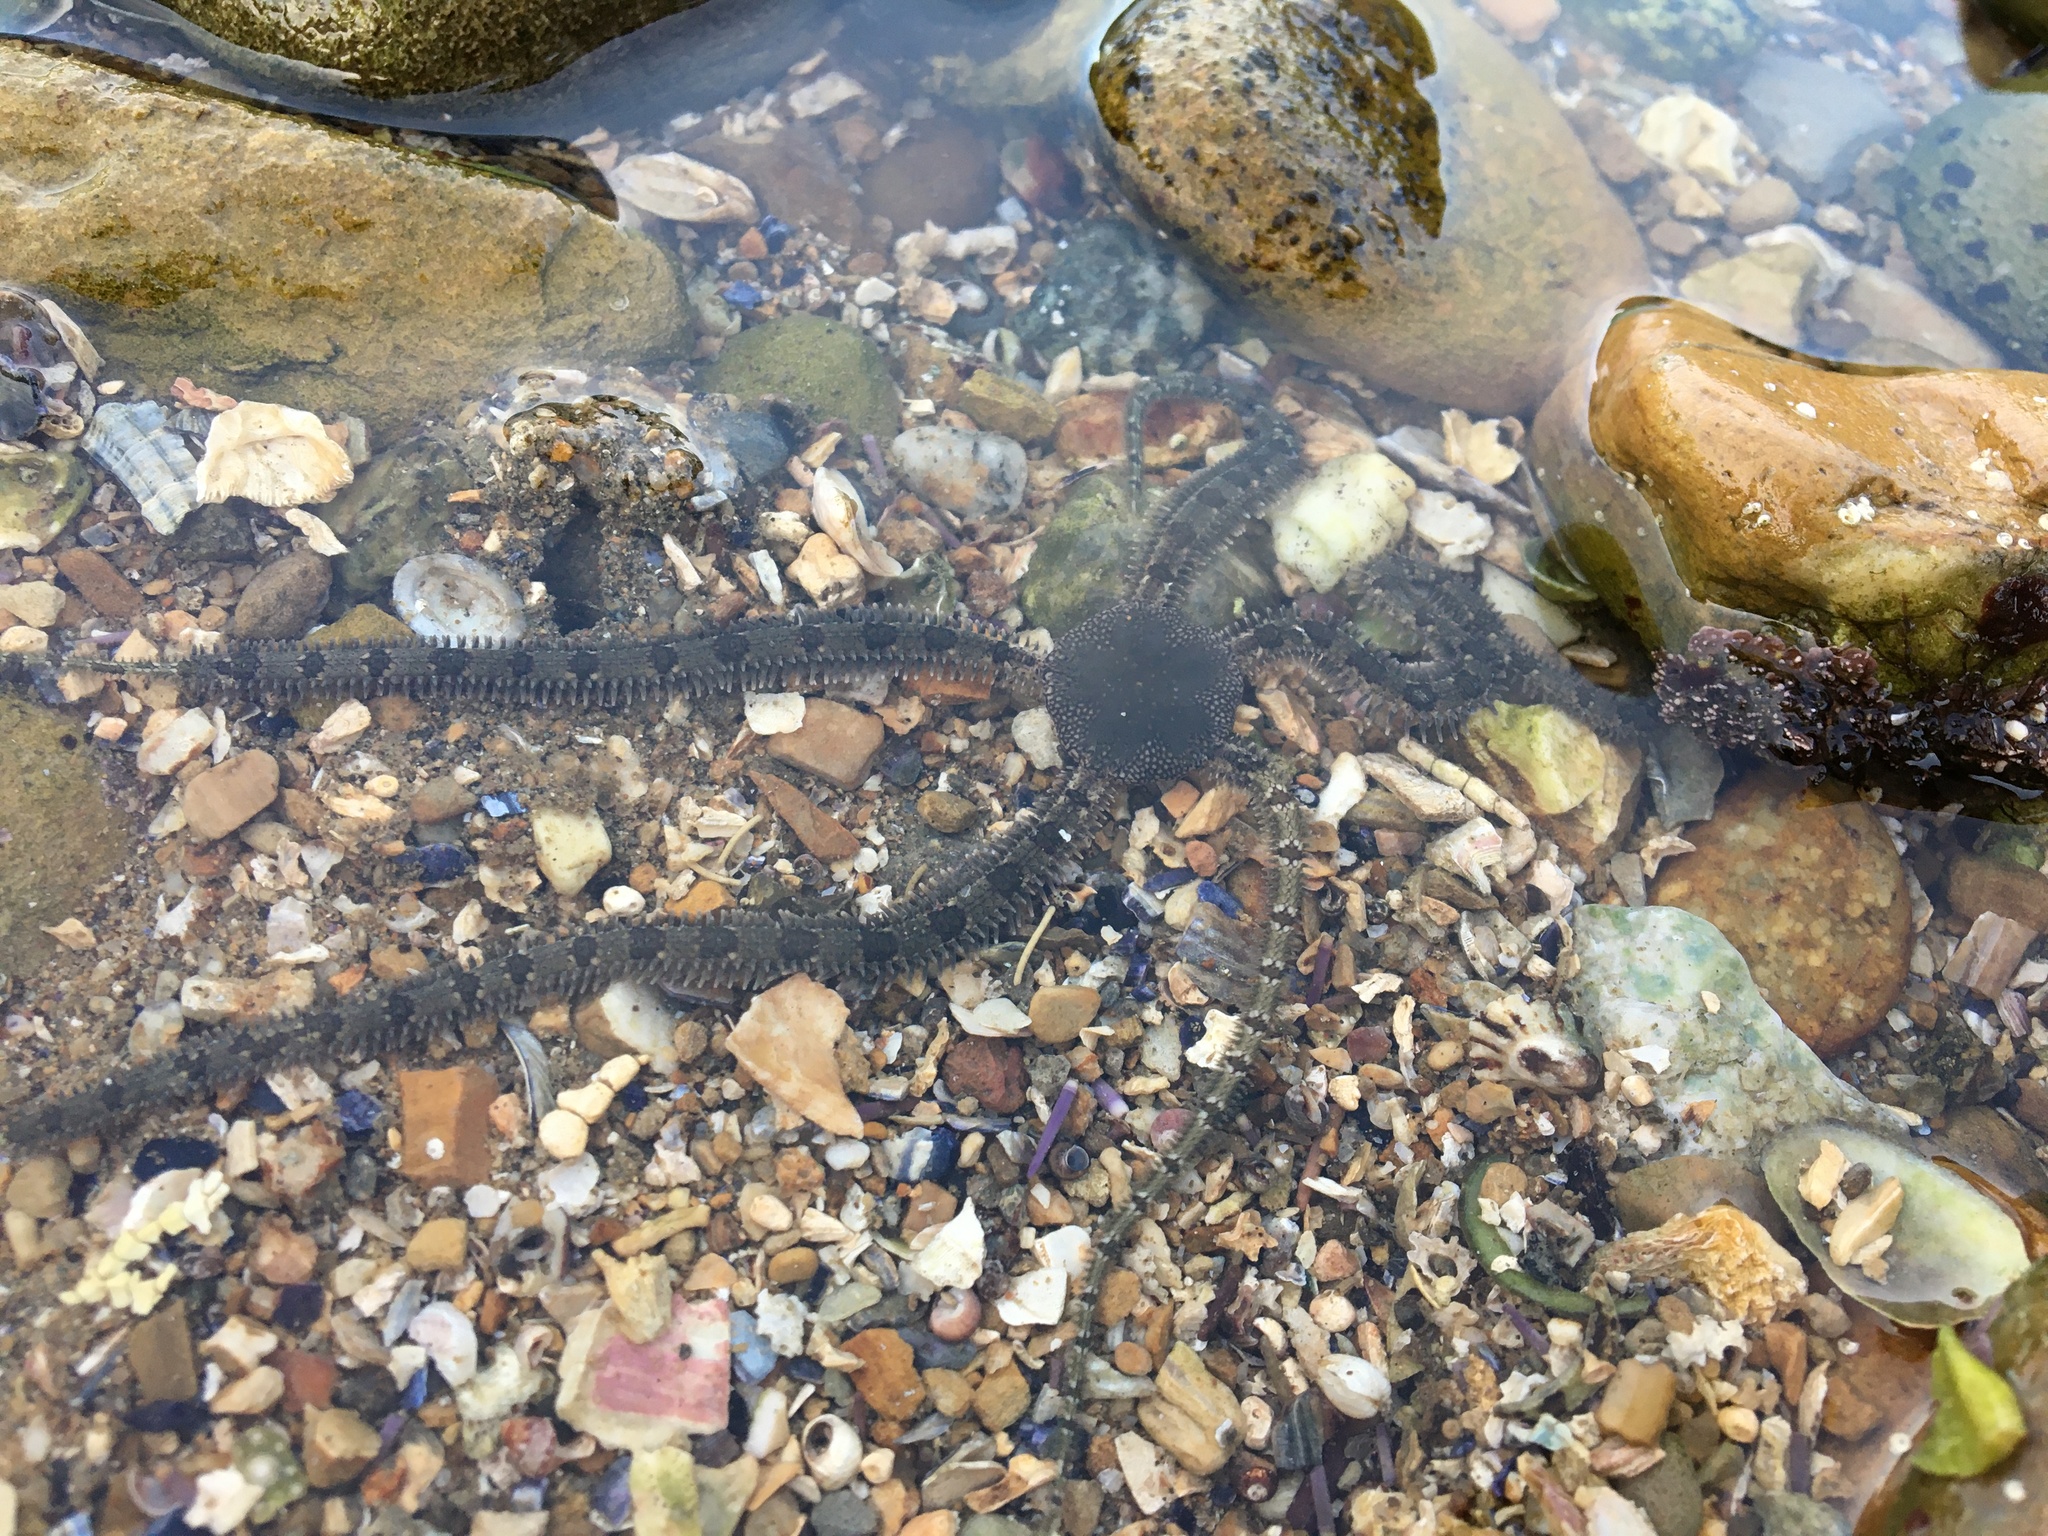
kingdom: Animalia
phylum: Echinodermata
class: Ophiuroidea
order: Amphilepidida
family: Ophionereididae
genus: Ophionereis
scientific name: Ophionereis annulata
